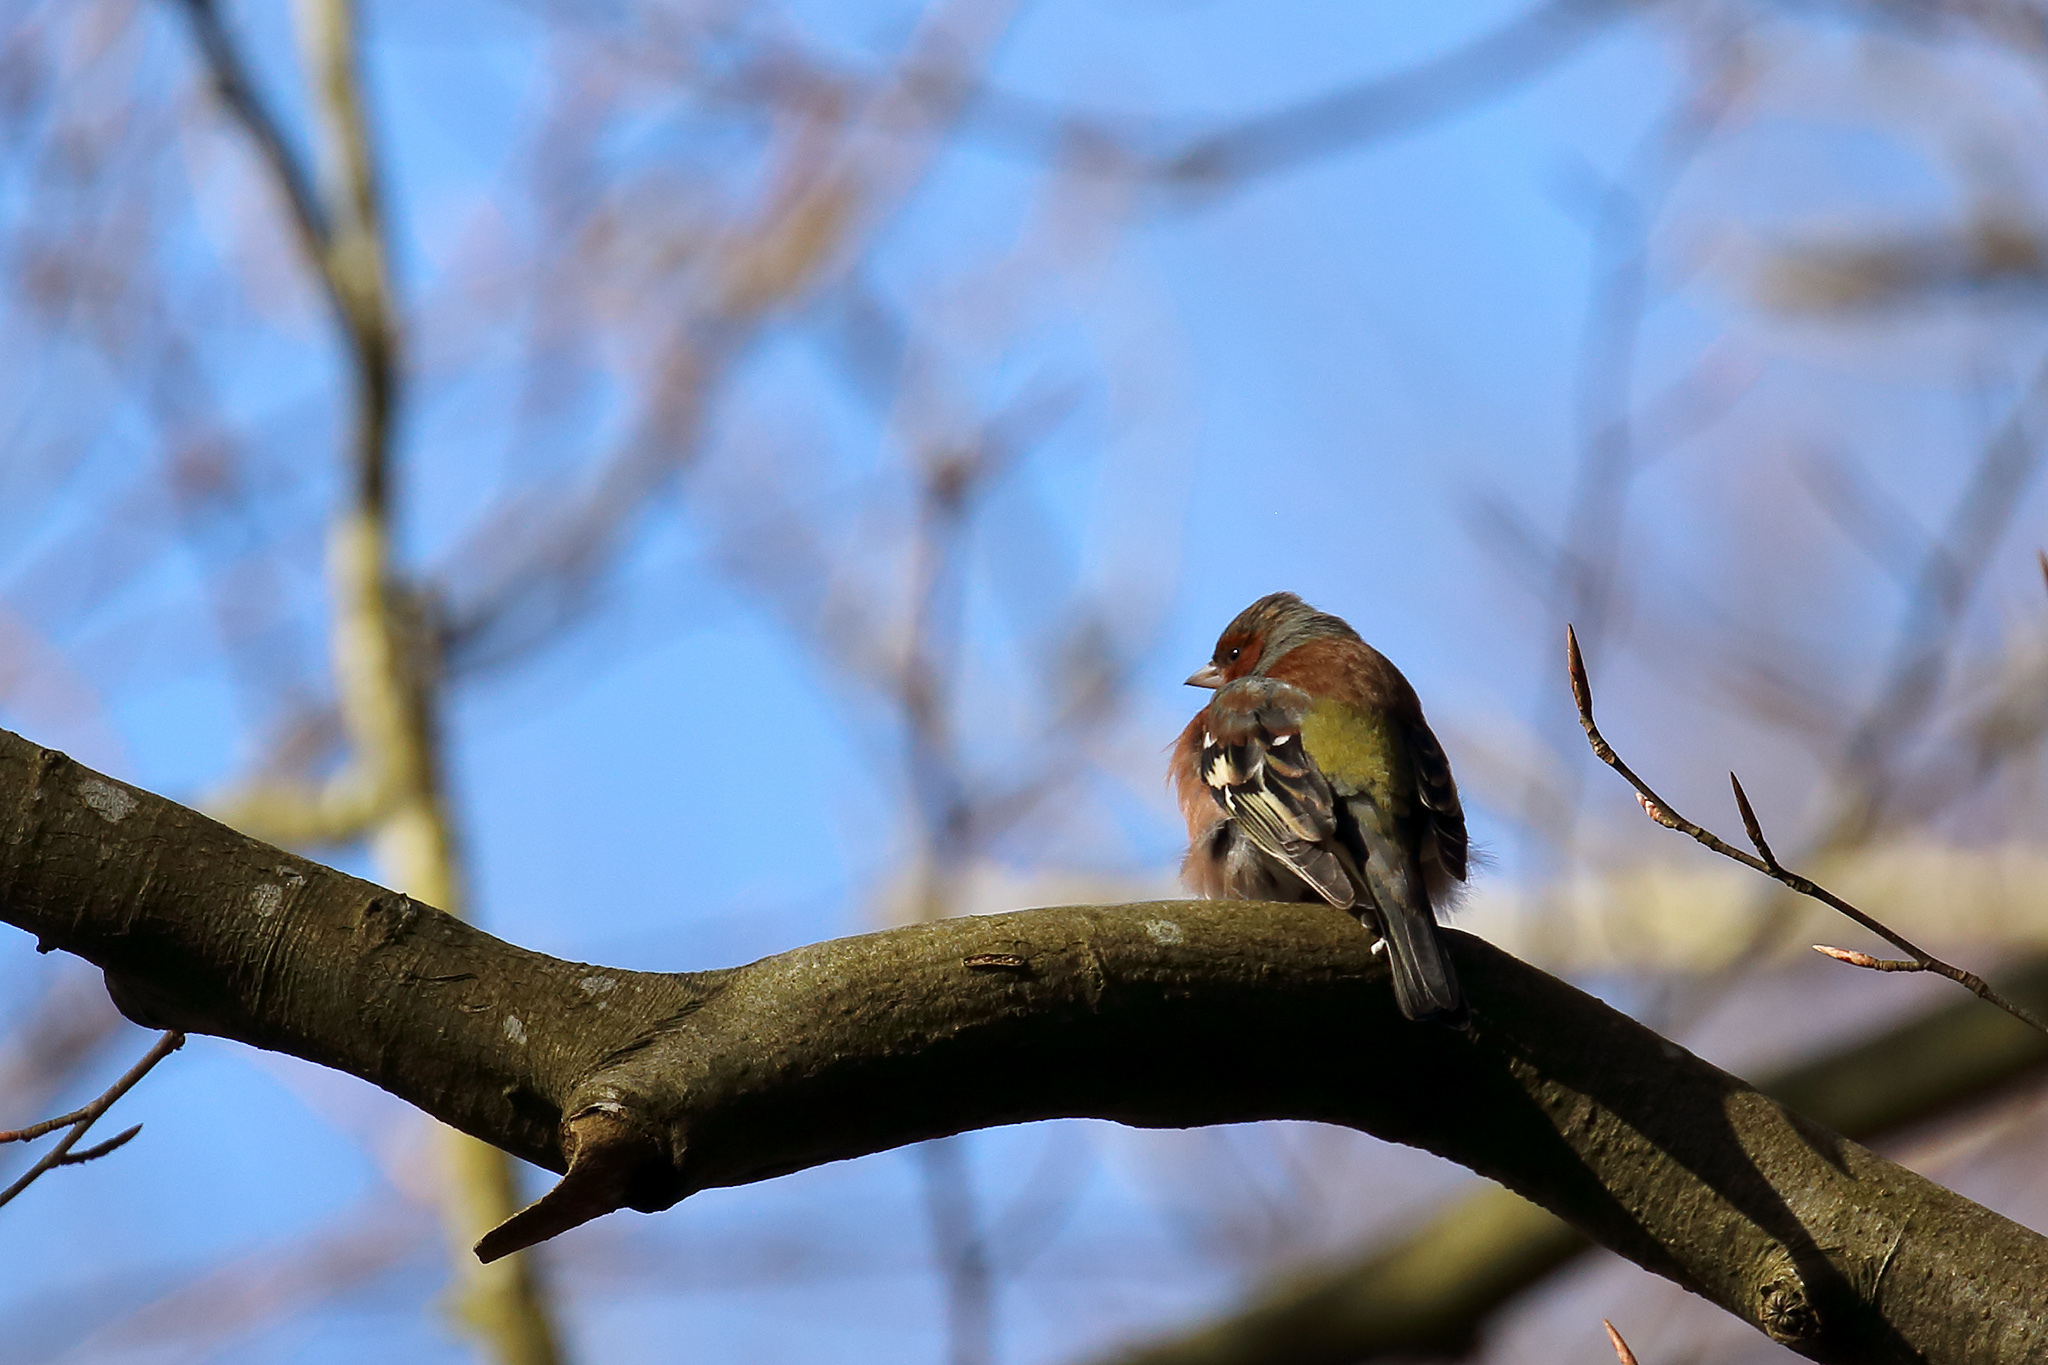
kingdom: Animalia
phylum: Chordata
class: Aves
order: Passeriformes
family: Fringillidae
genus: Fringilla
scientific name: Fringilla coelebs
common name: Common chaffinch
